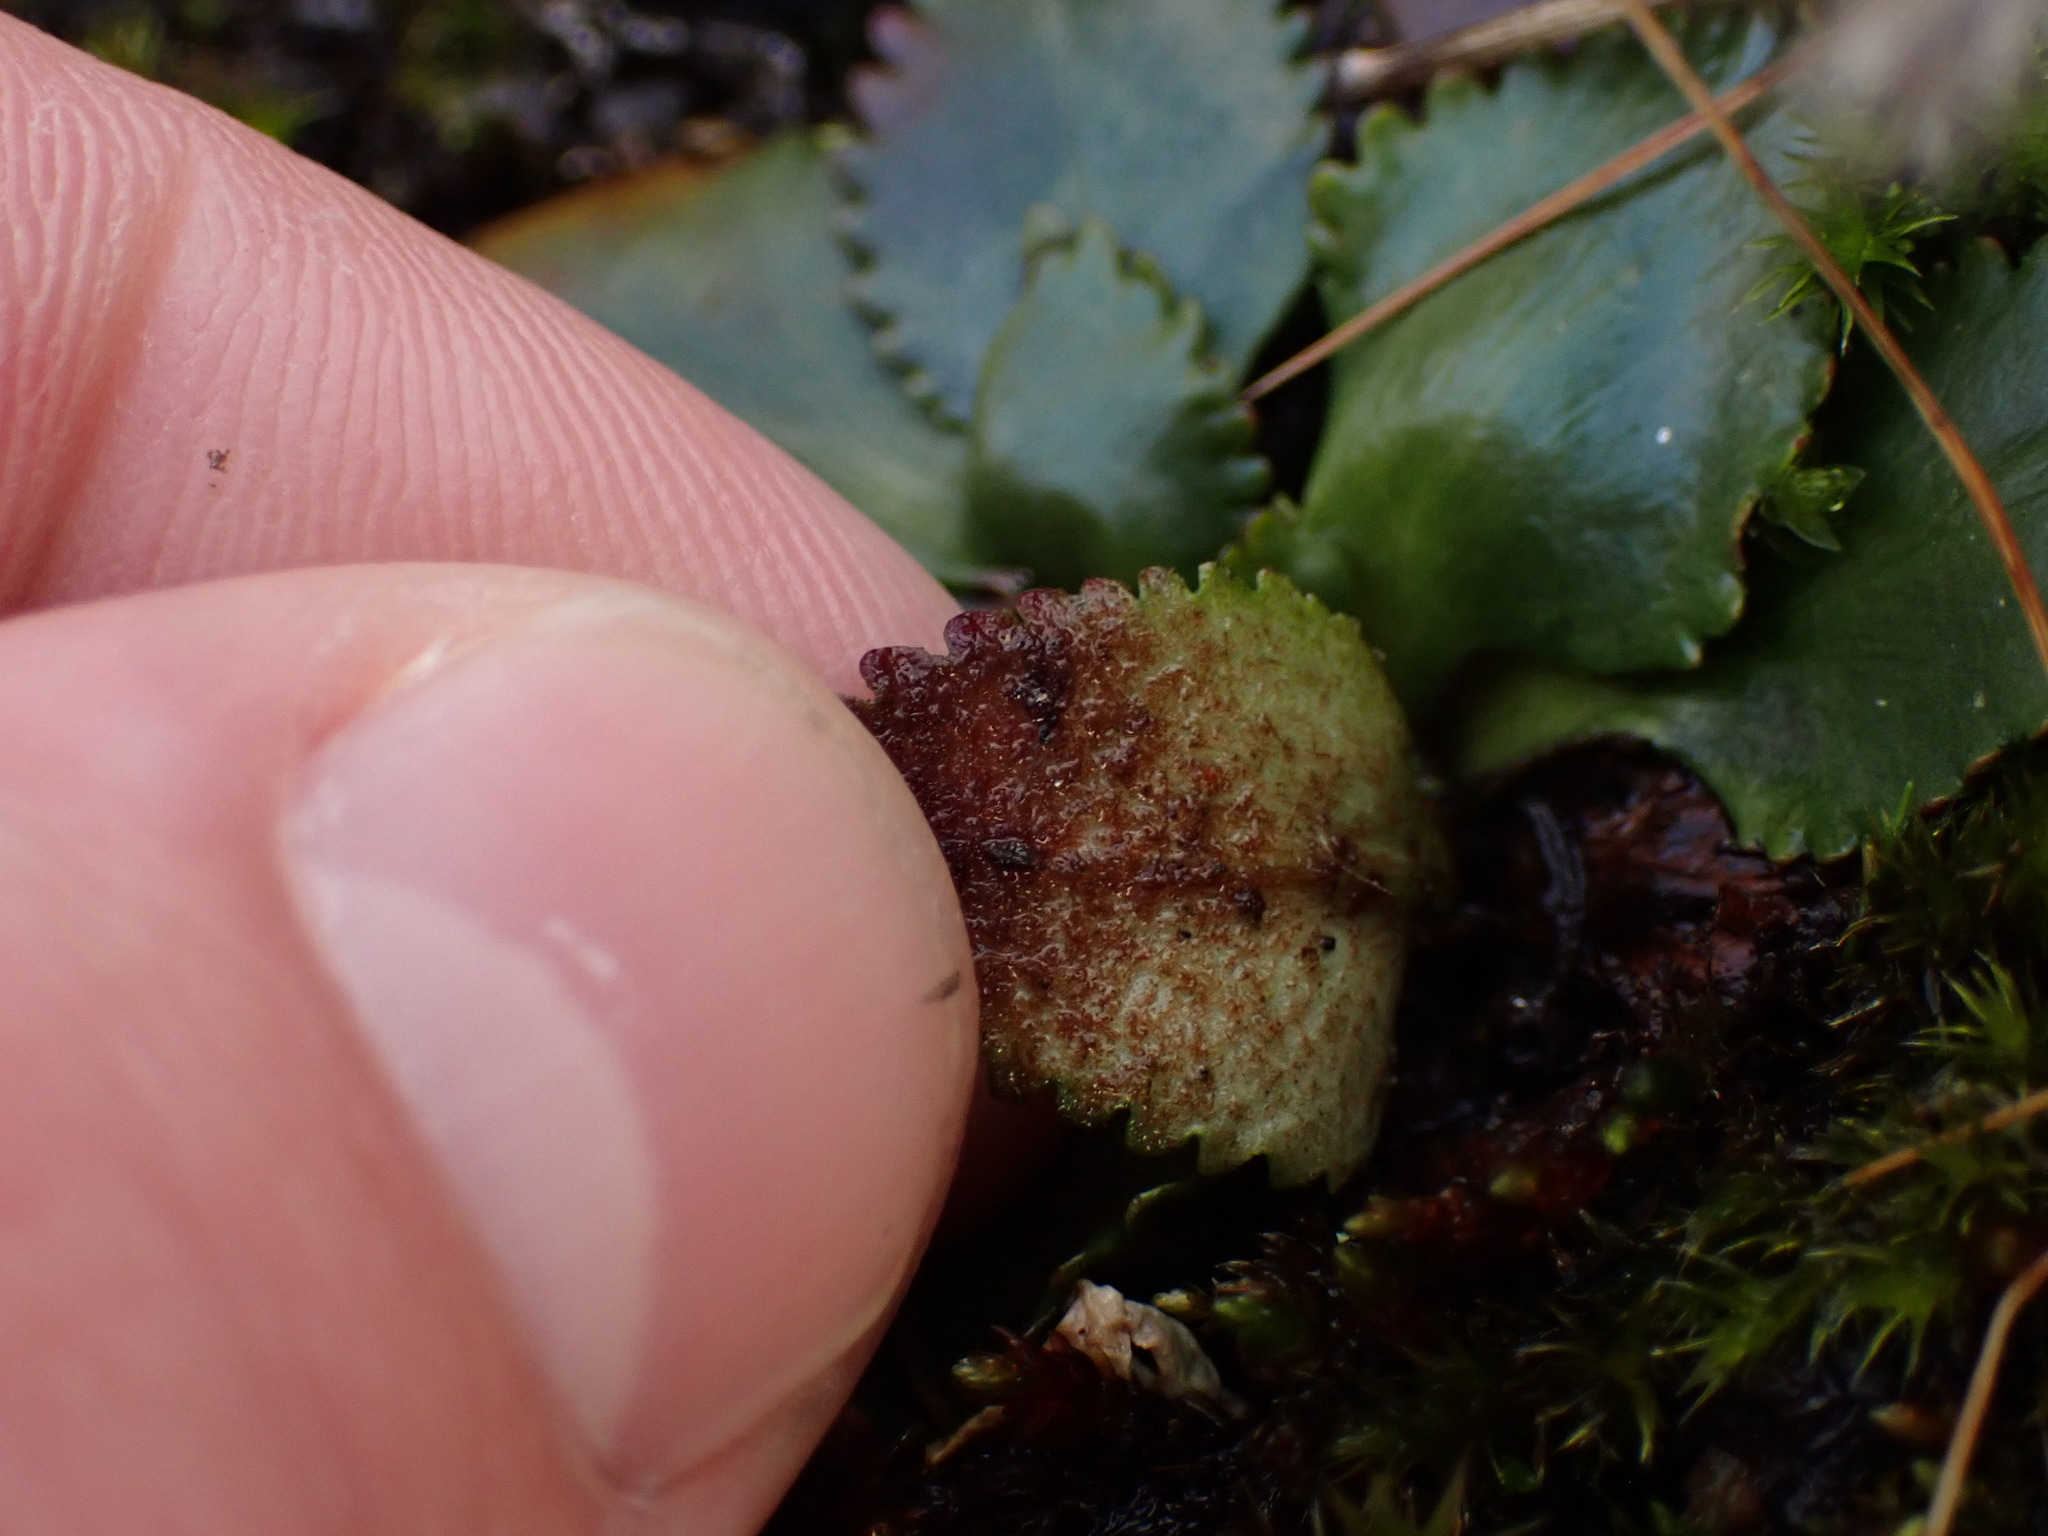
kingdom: Plantae
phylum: Tracheophyta
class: Magnoliopsida
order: Saxifragales
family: Saxifragaceae
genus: Micranthes
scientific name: Micranthes rufidula
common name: Rustyhair saxifrage
